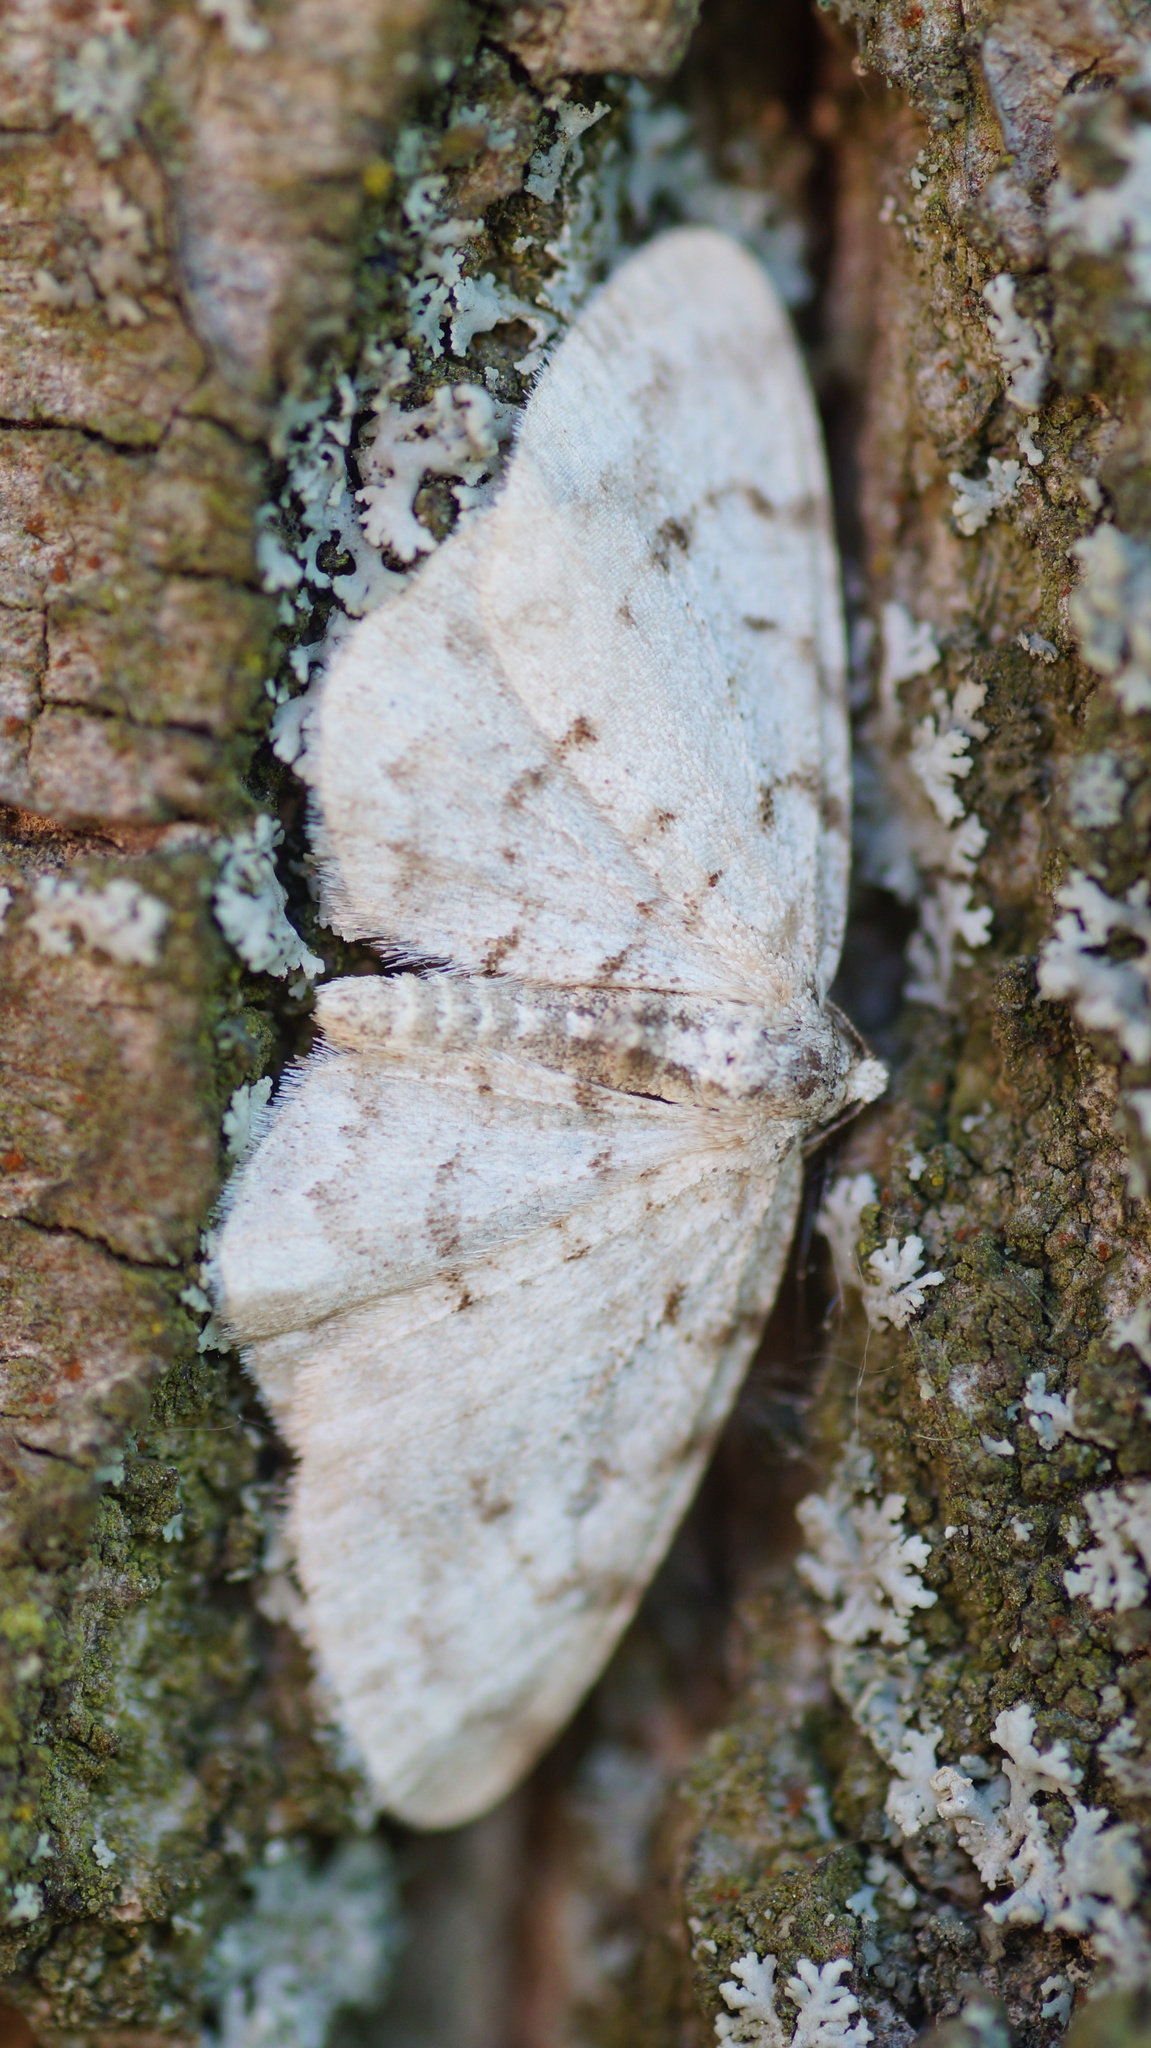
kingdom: Animalia
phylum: Arthropoda
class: Insecta
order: Lepidoptera
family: Geometridae
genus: Aethalura
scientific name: Aethalura punctulata
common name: Grey birch
